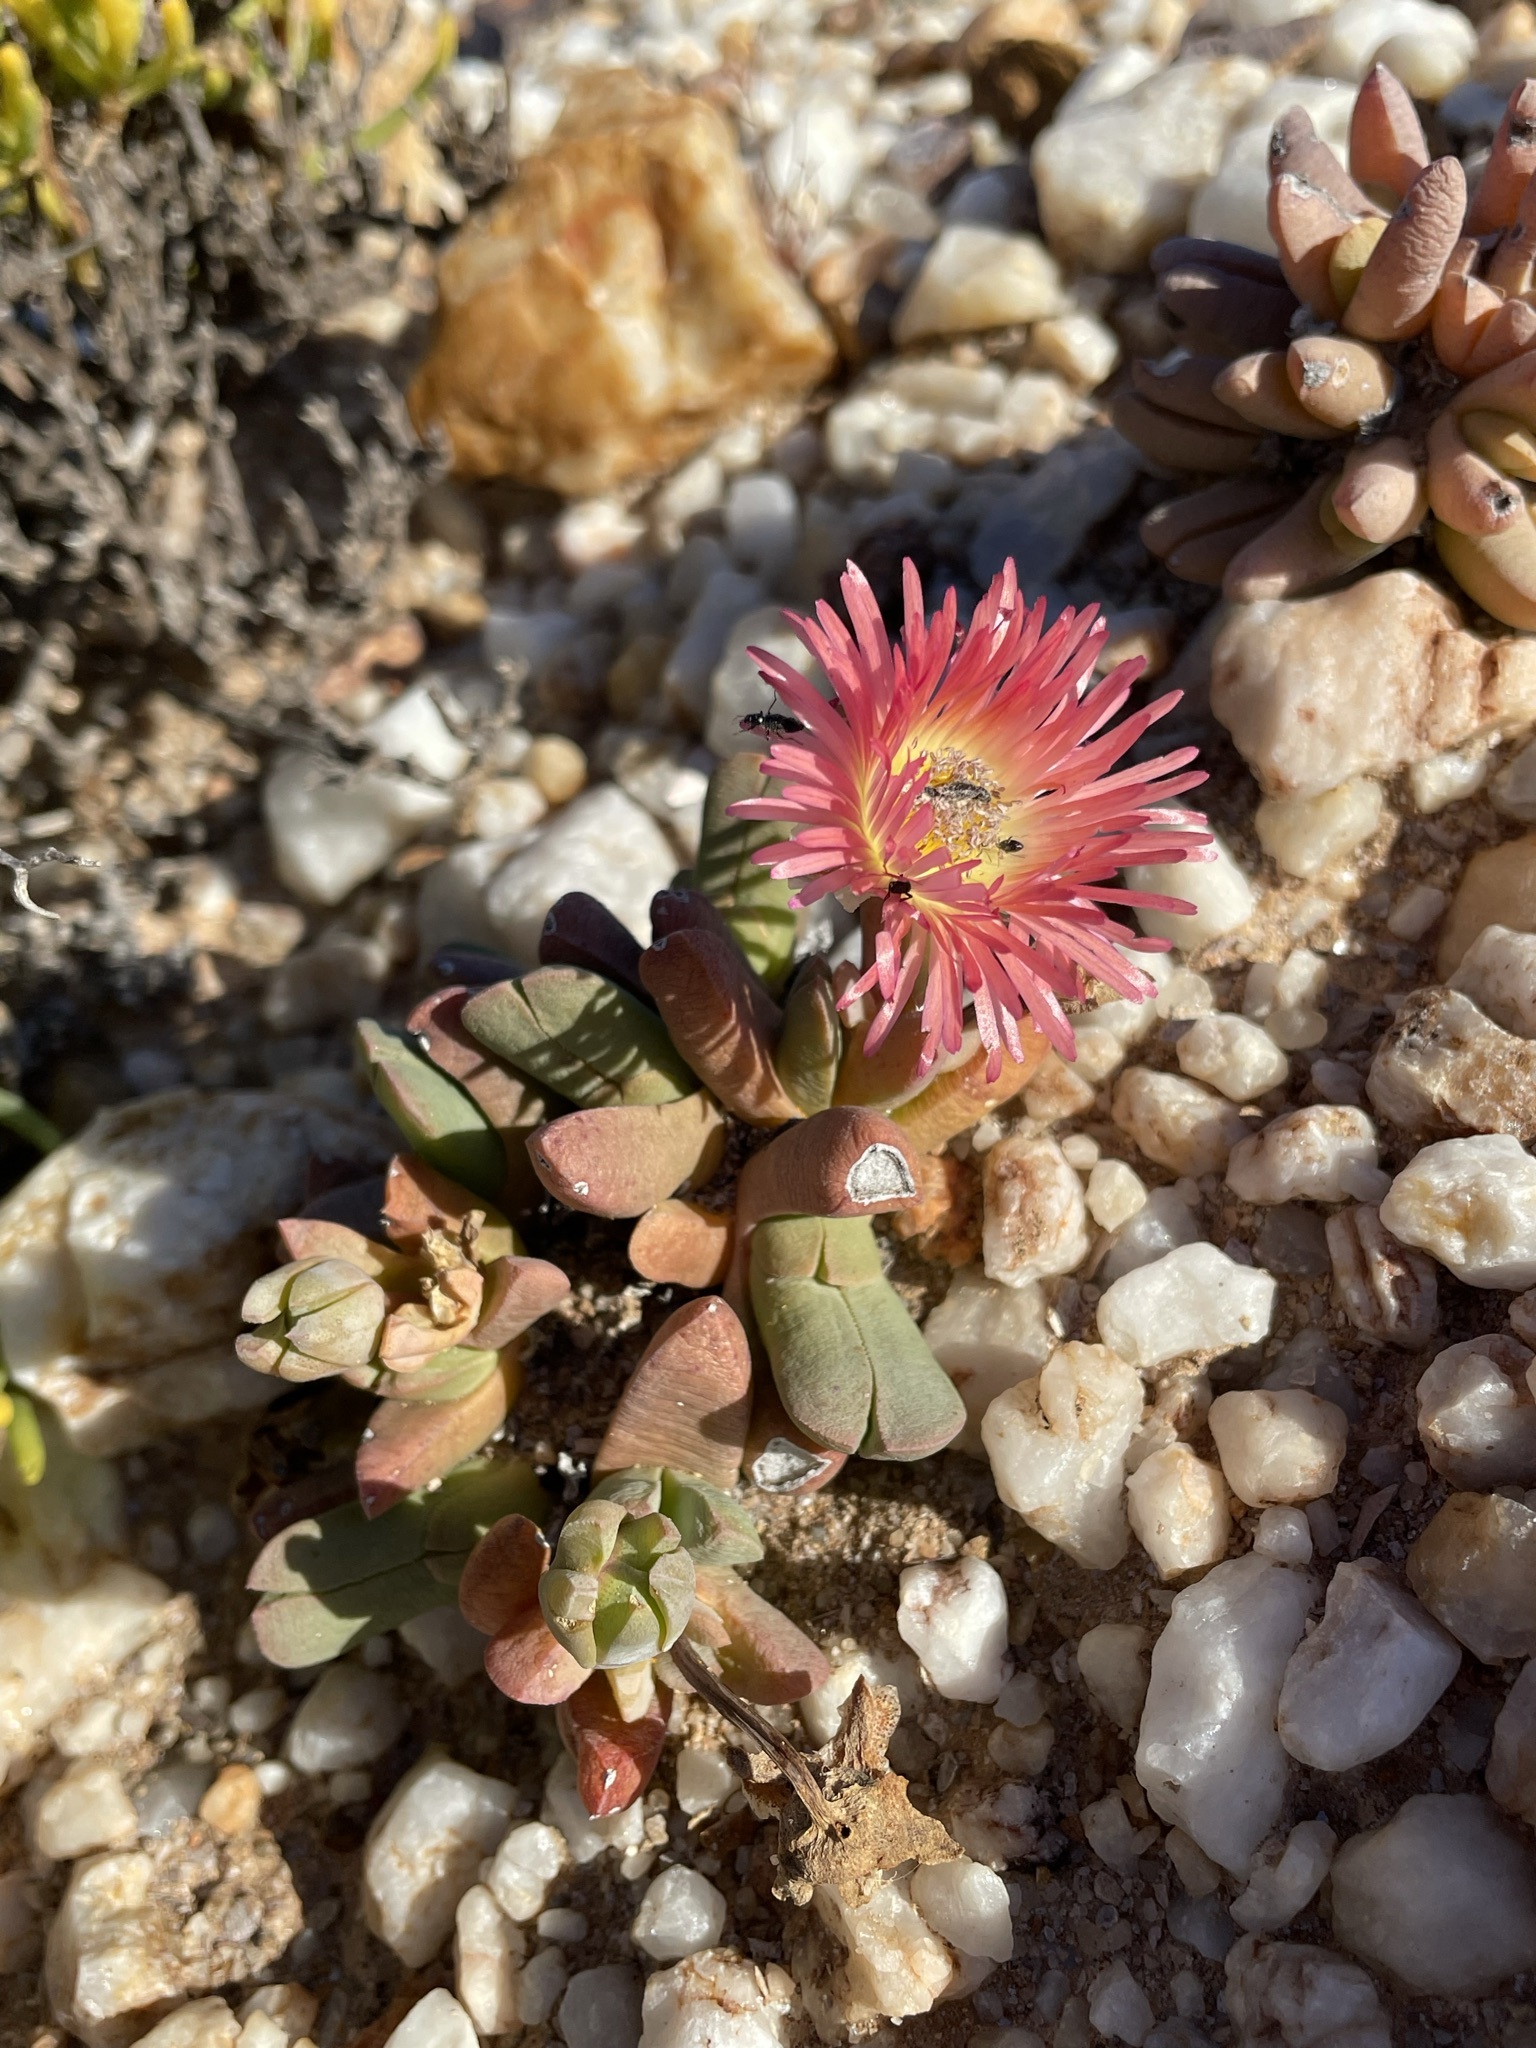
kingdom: Plantae
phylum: Tracheophyta
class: Magnoliopsida
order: Caryophyllales
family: Aizoaceae
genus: Cephalophyllum
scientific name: Cephalophyllum spissum
